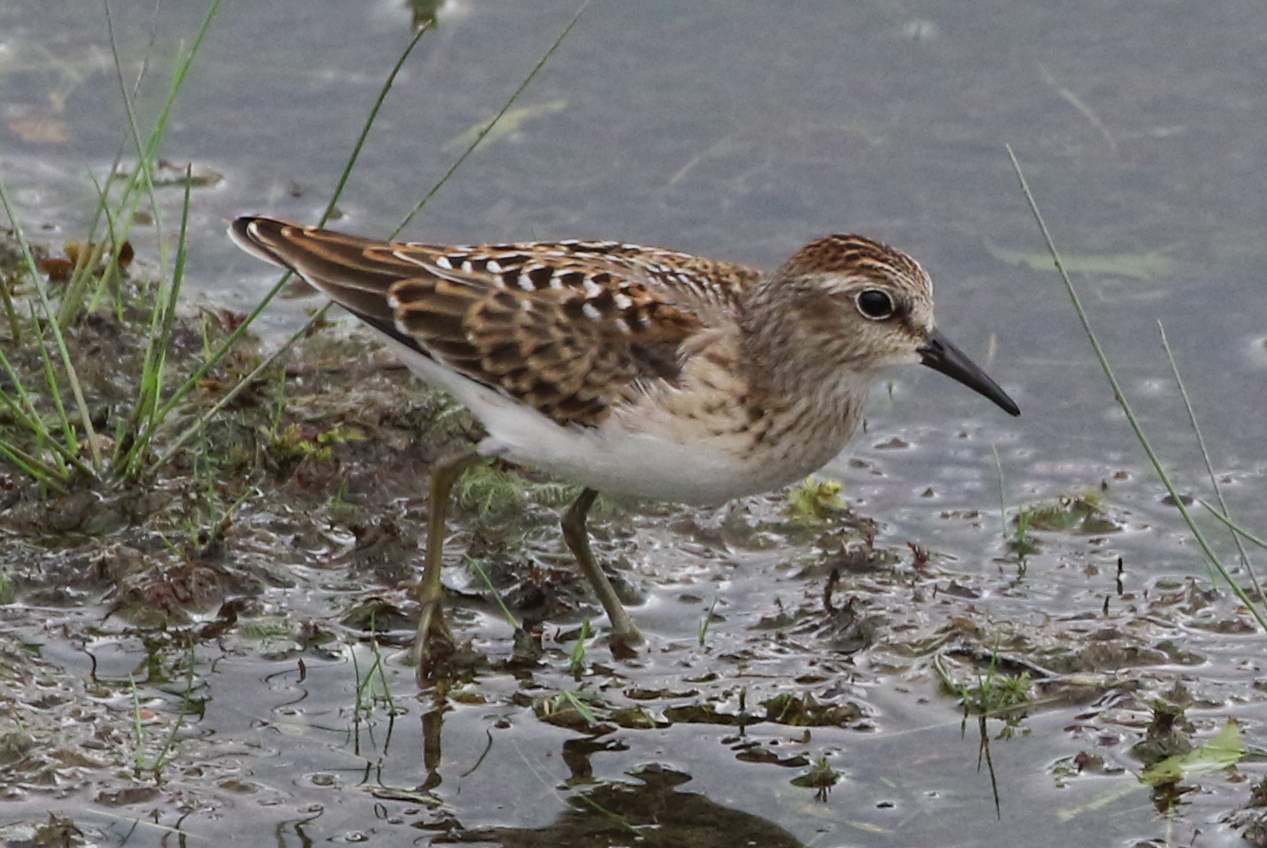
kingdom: Animalia
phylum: Chordata
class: Aves
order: Charadriiformes
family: Scolopacidae
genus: Calidris
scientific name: Calidris minutilla
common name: Least sandpiper
